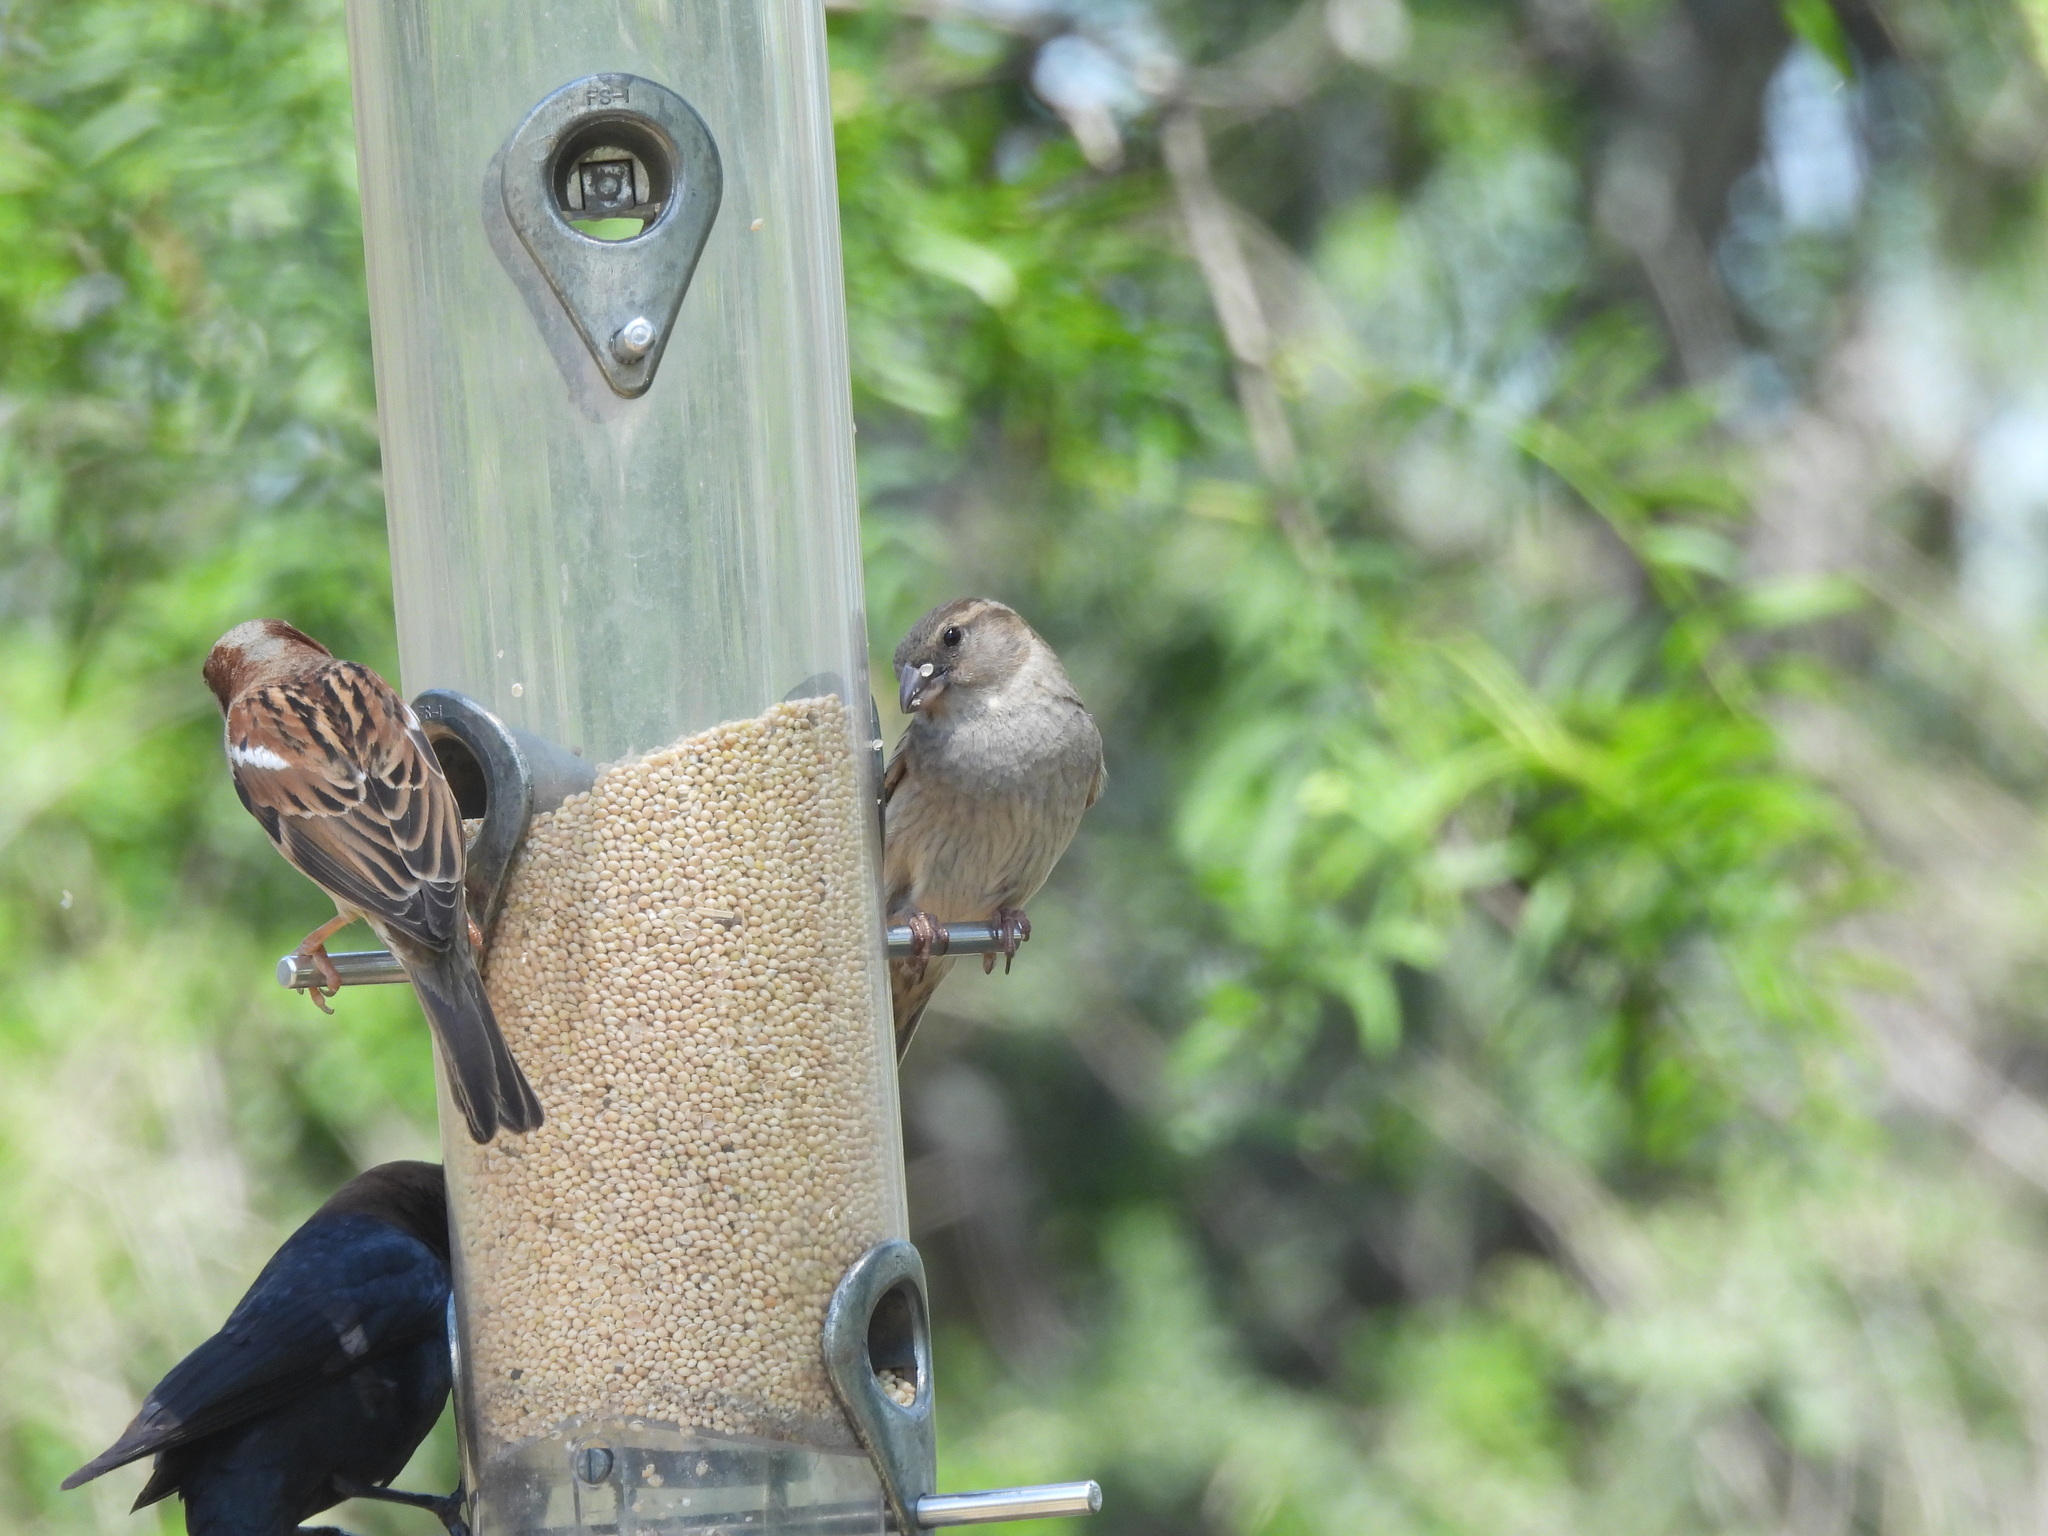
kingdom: Animalia
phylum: Chordata
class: Aves
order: Passeriformes
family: Passeridae
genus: Passer
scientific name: Passer domesticus
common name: House sparrow
